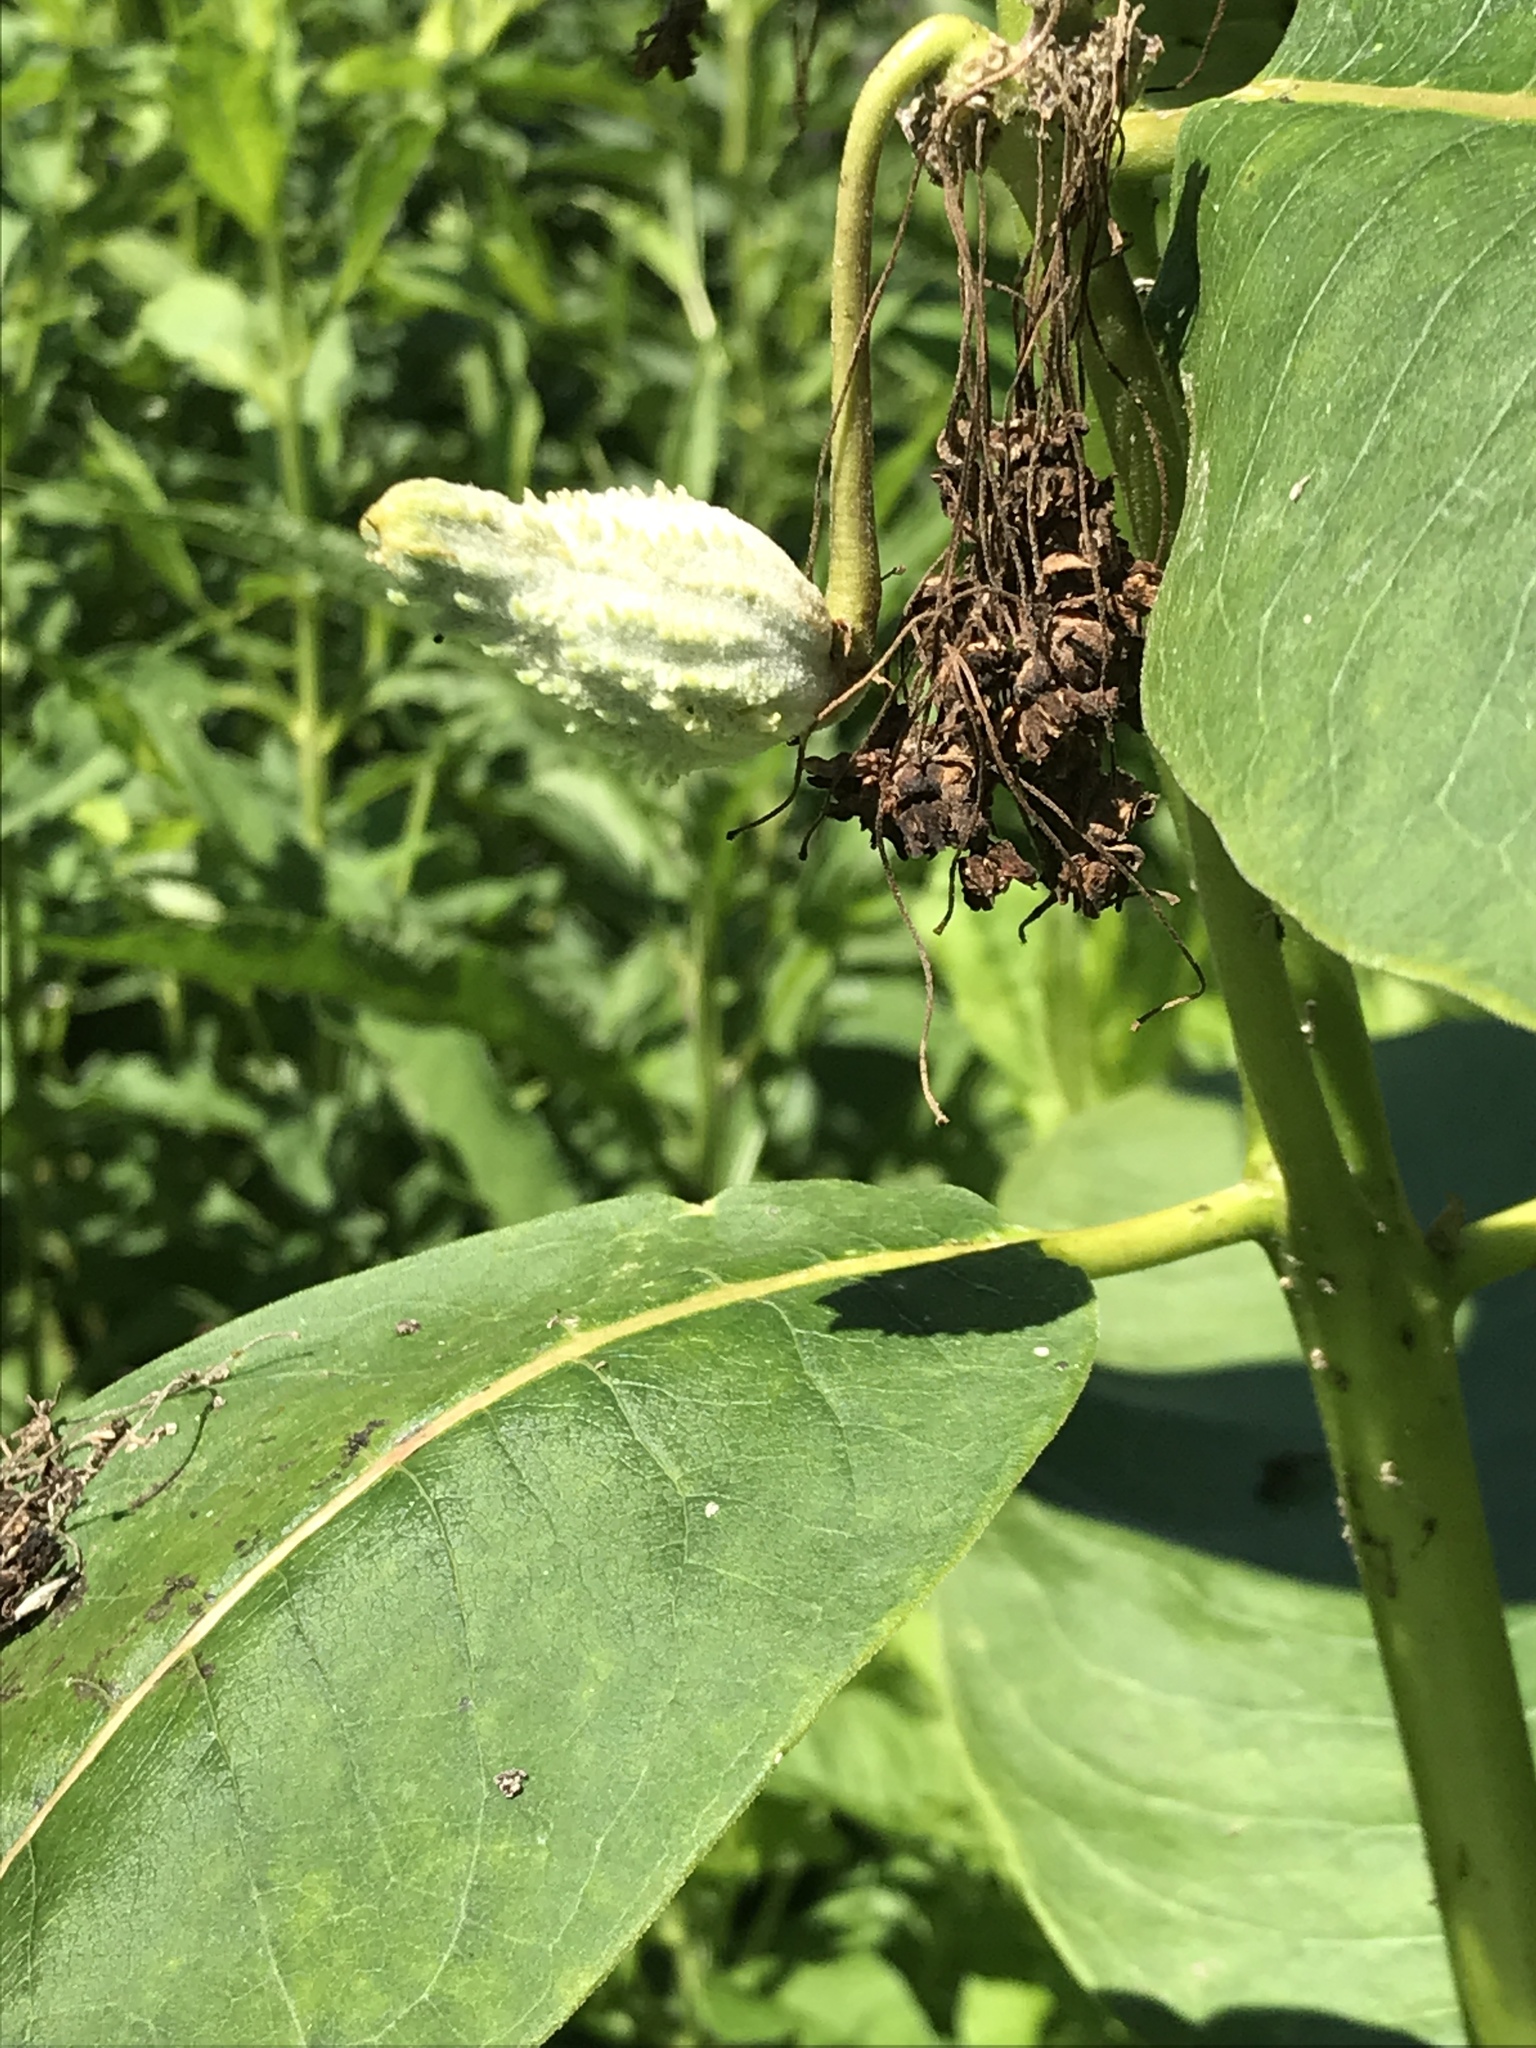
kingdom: Plantae
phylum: Tracheophyta
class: Magnoliopsida
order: Gentianales
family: Apocynaceae
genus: Asclepias
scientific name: Asclepias syriaca
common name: Common milkweed
